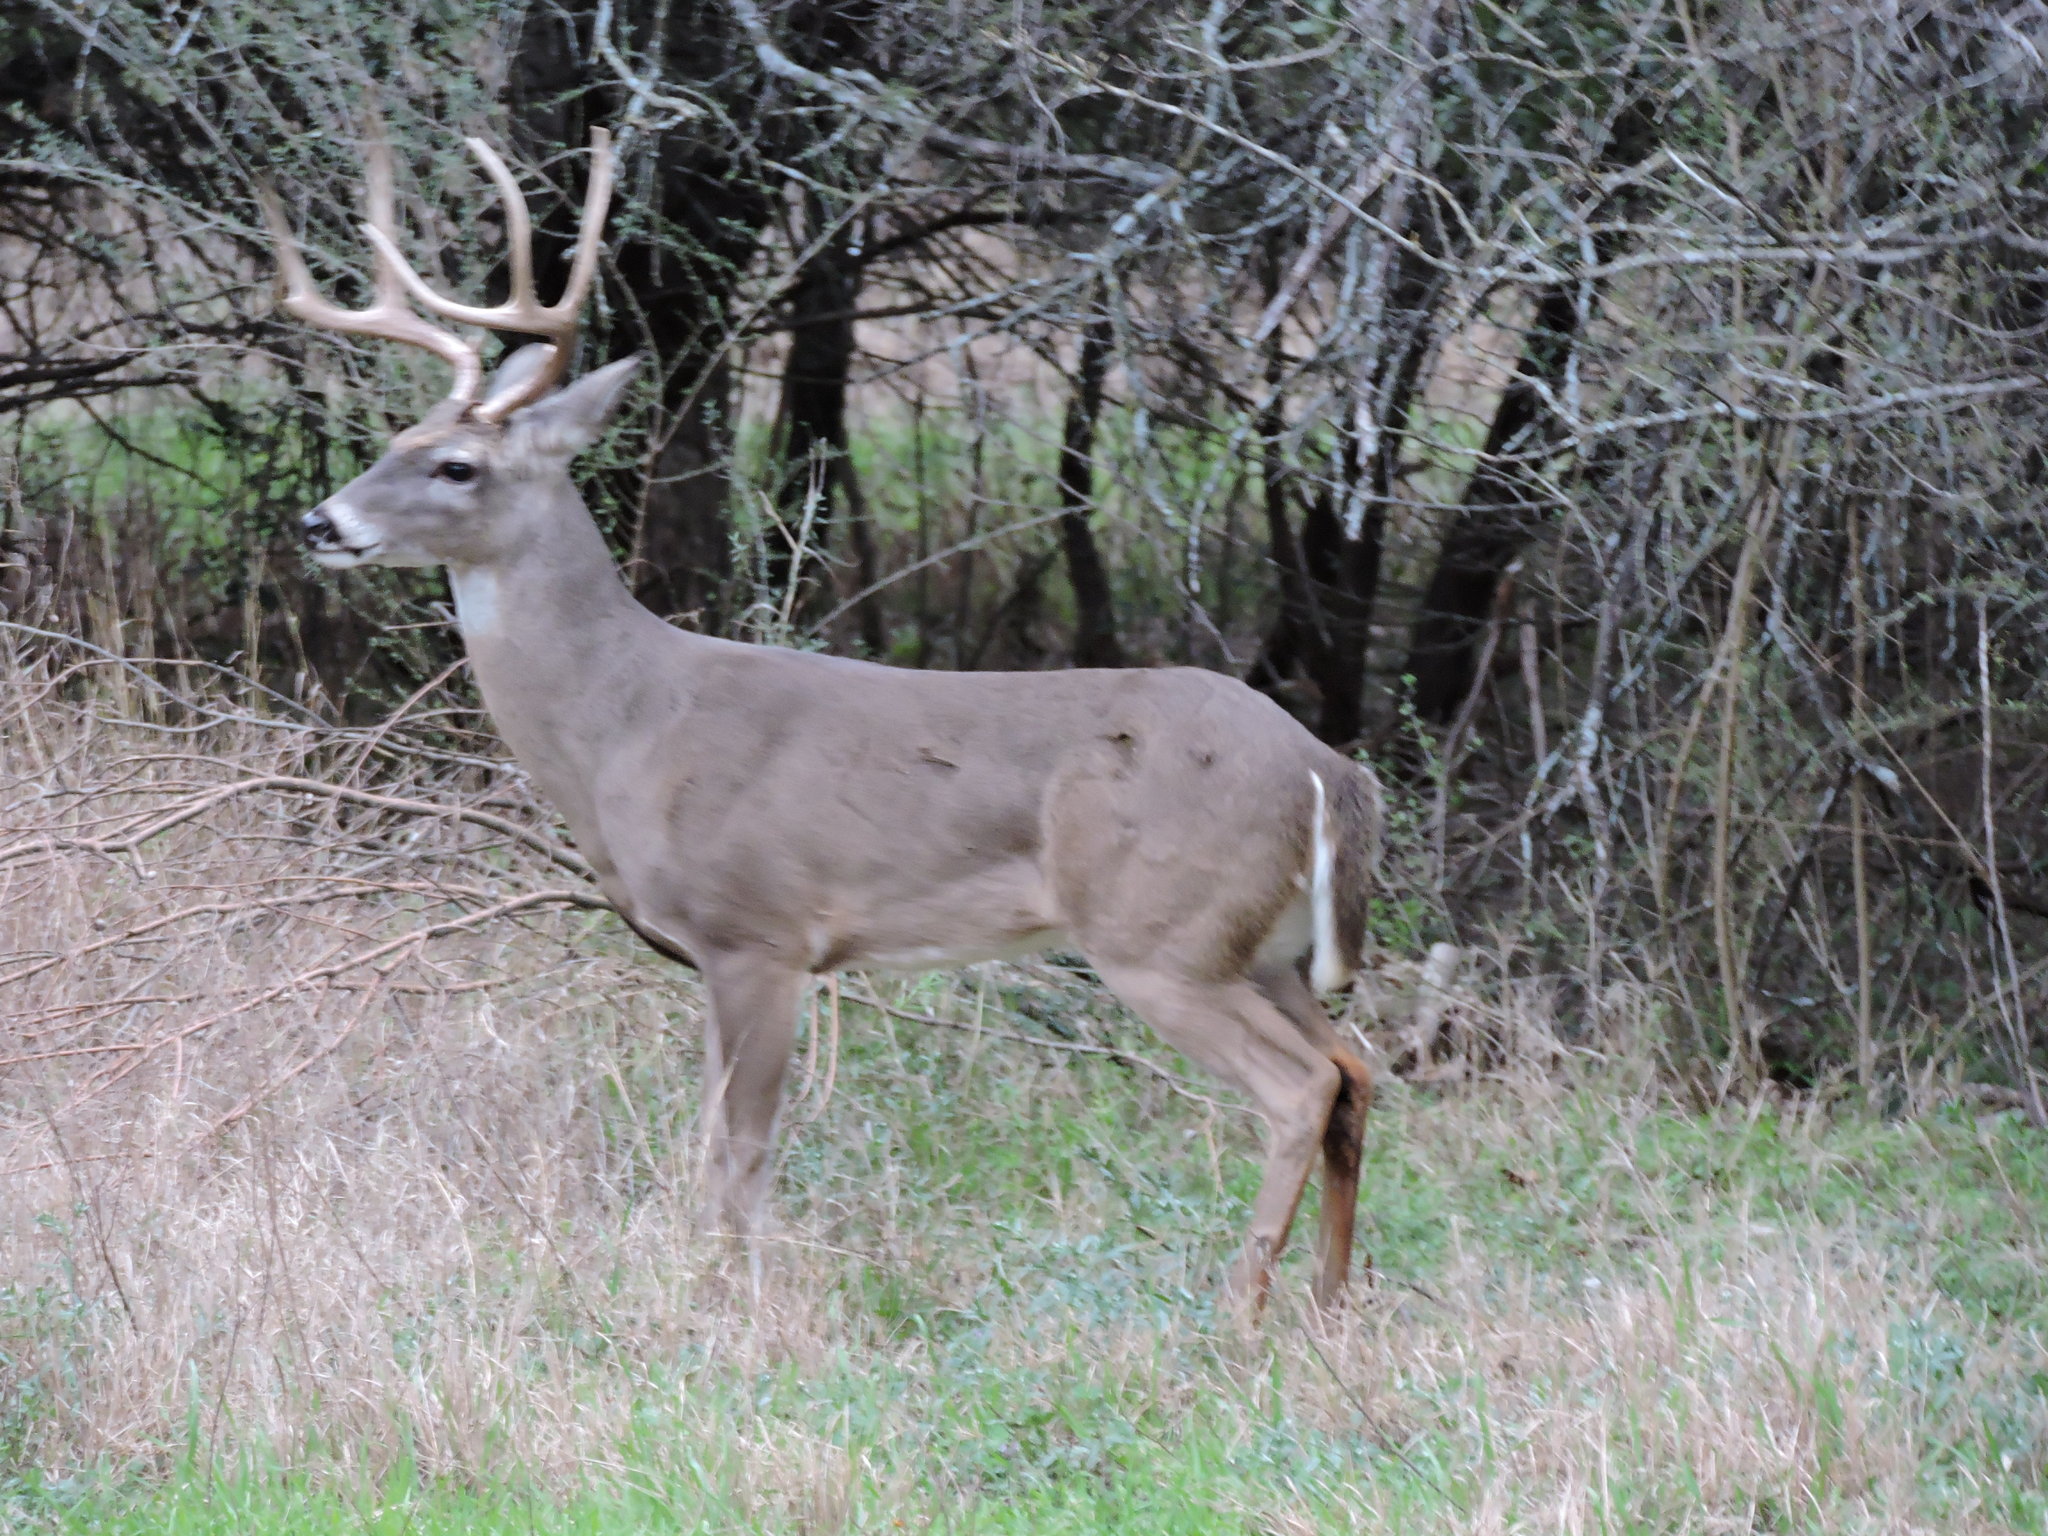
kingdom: Animalia
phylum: Chordata
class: Mammalia
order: Artiodactyla
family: Cervidae
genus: Odocoileus
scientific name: Odocoileus virginianus
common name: White-tailed deer
